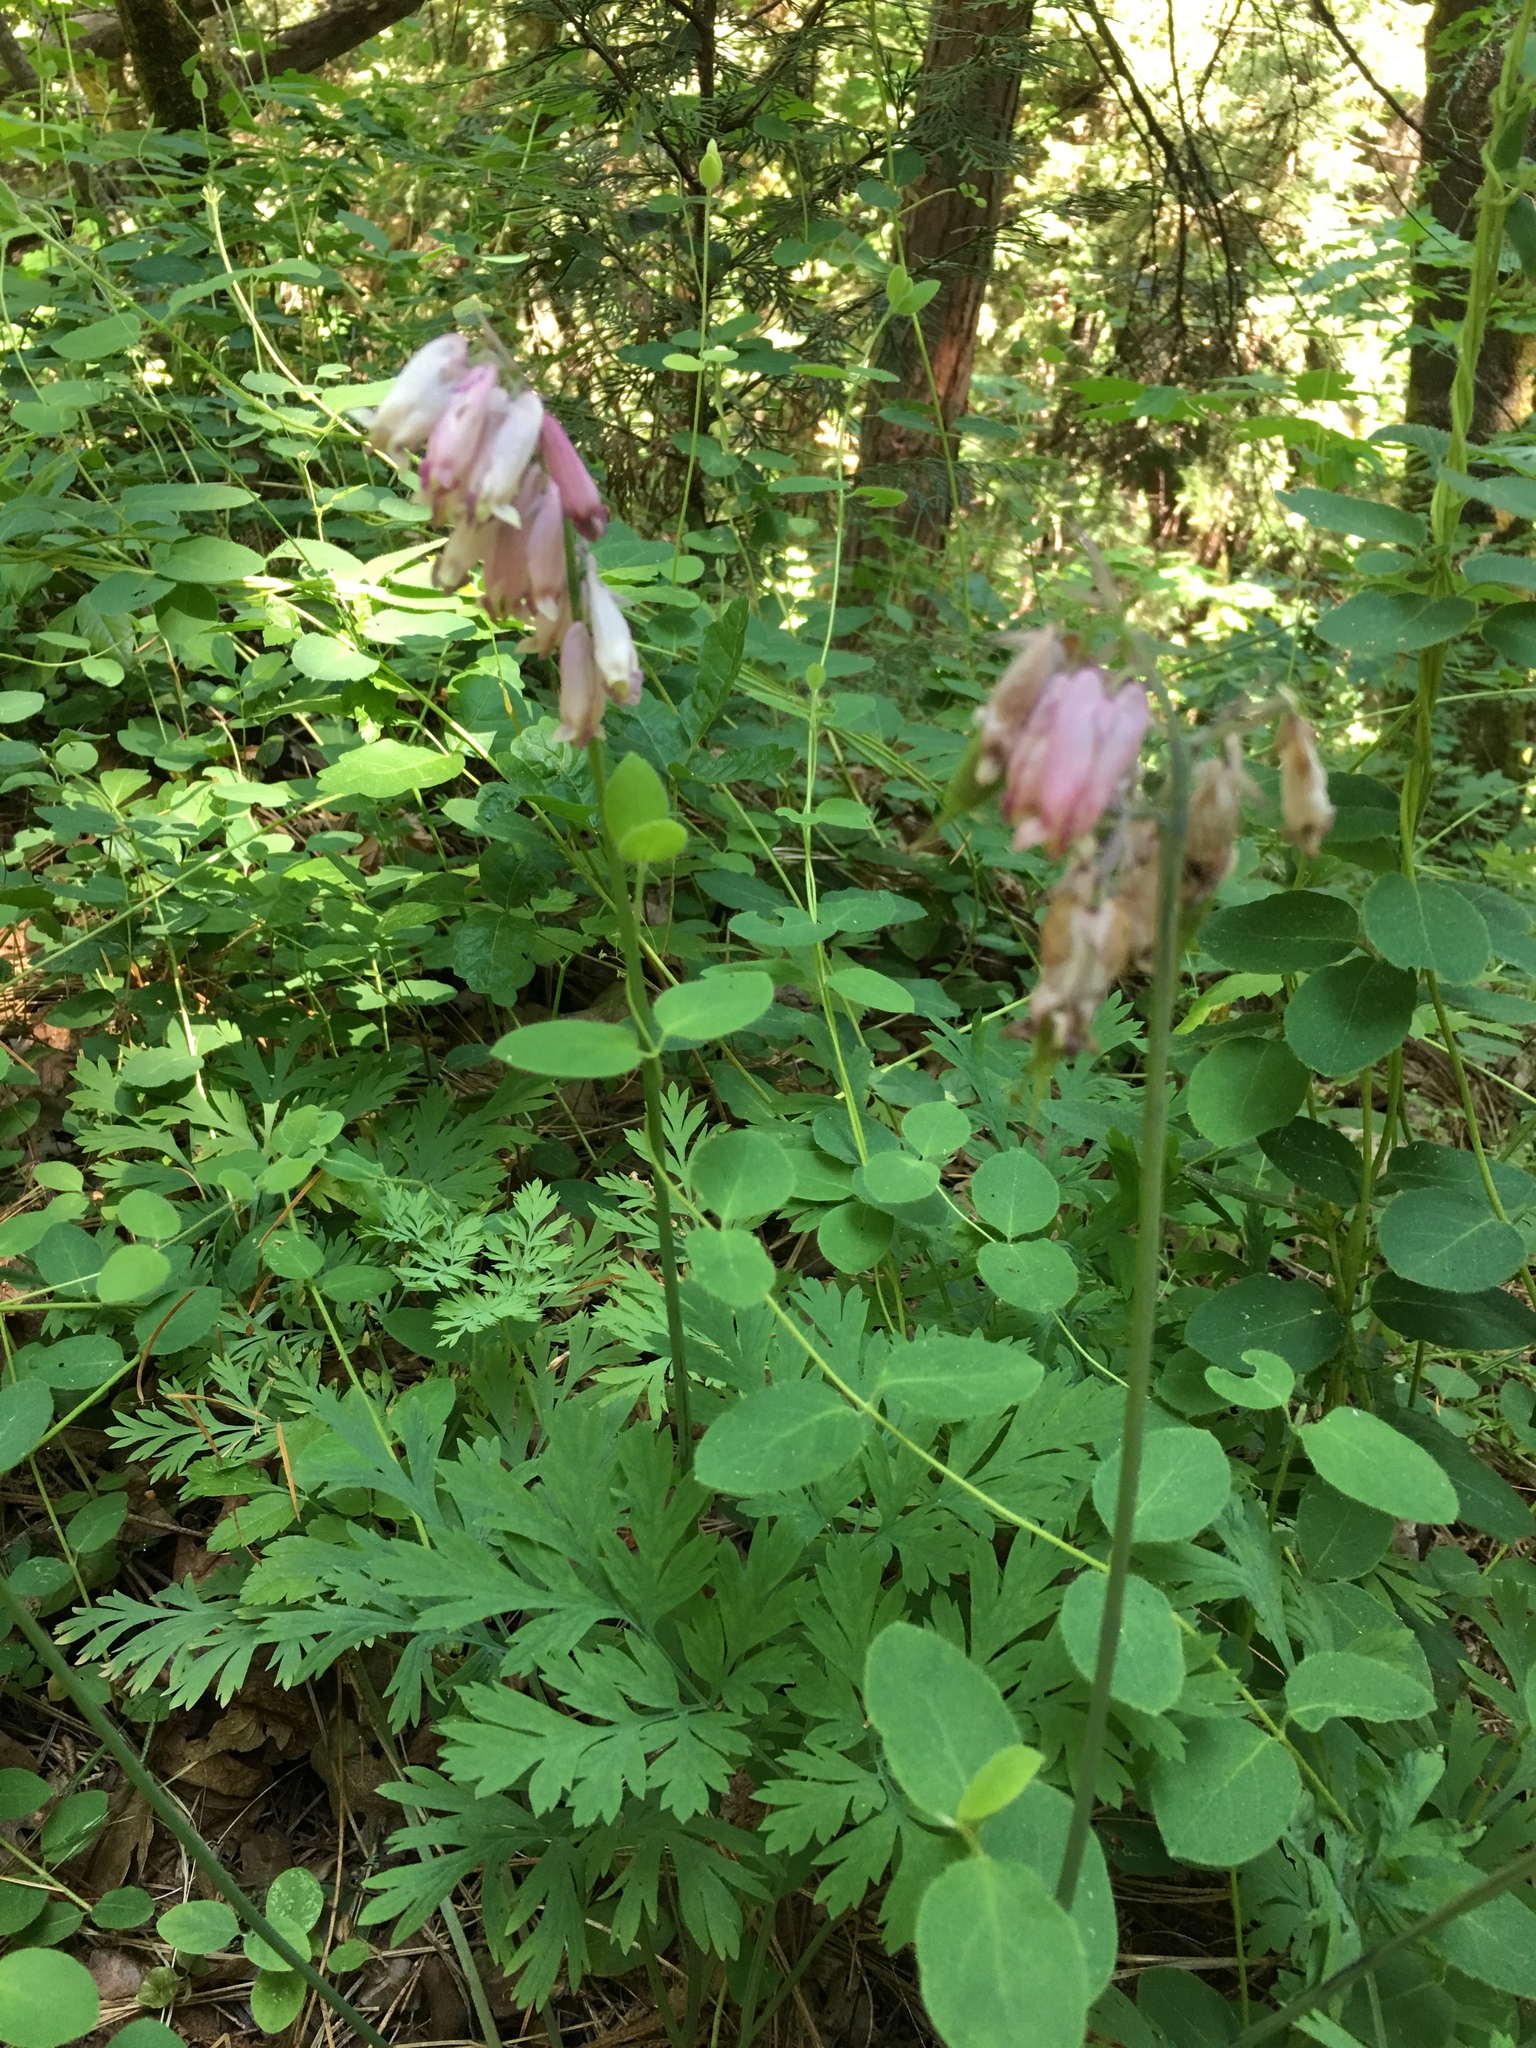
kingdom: Plantae
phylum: Tracheophyta
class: Magnoliopsida
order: Ranunculales
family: Papaveraceae
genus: Dicentra
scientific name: Dicentra formosa
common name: Bleeding-heart
